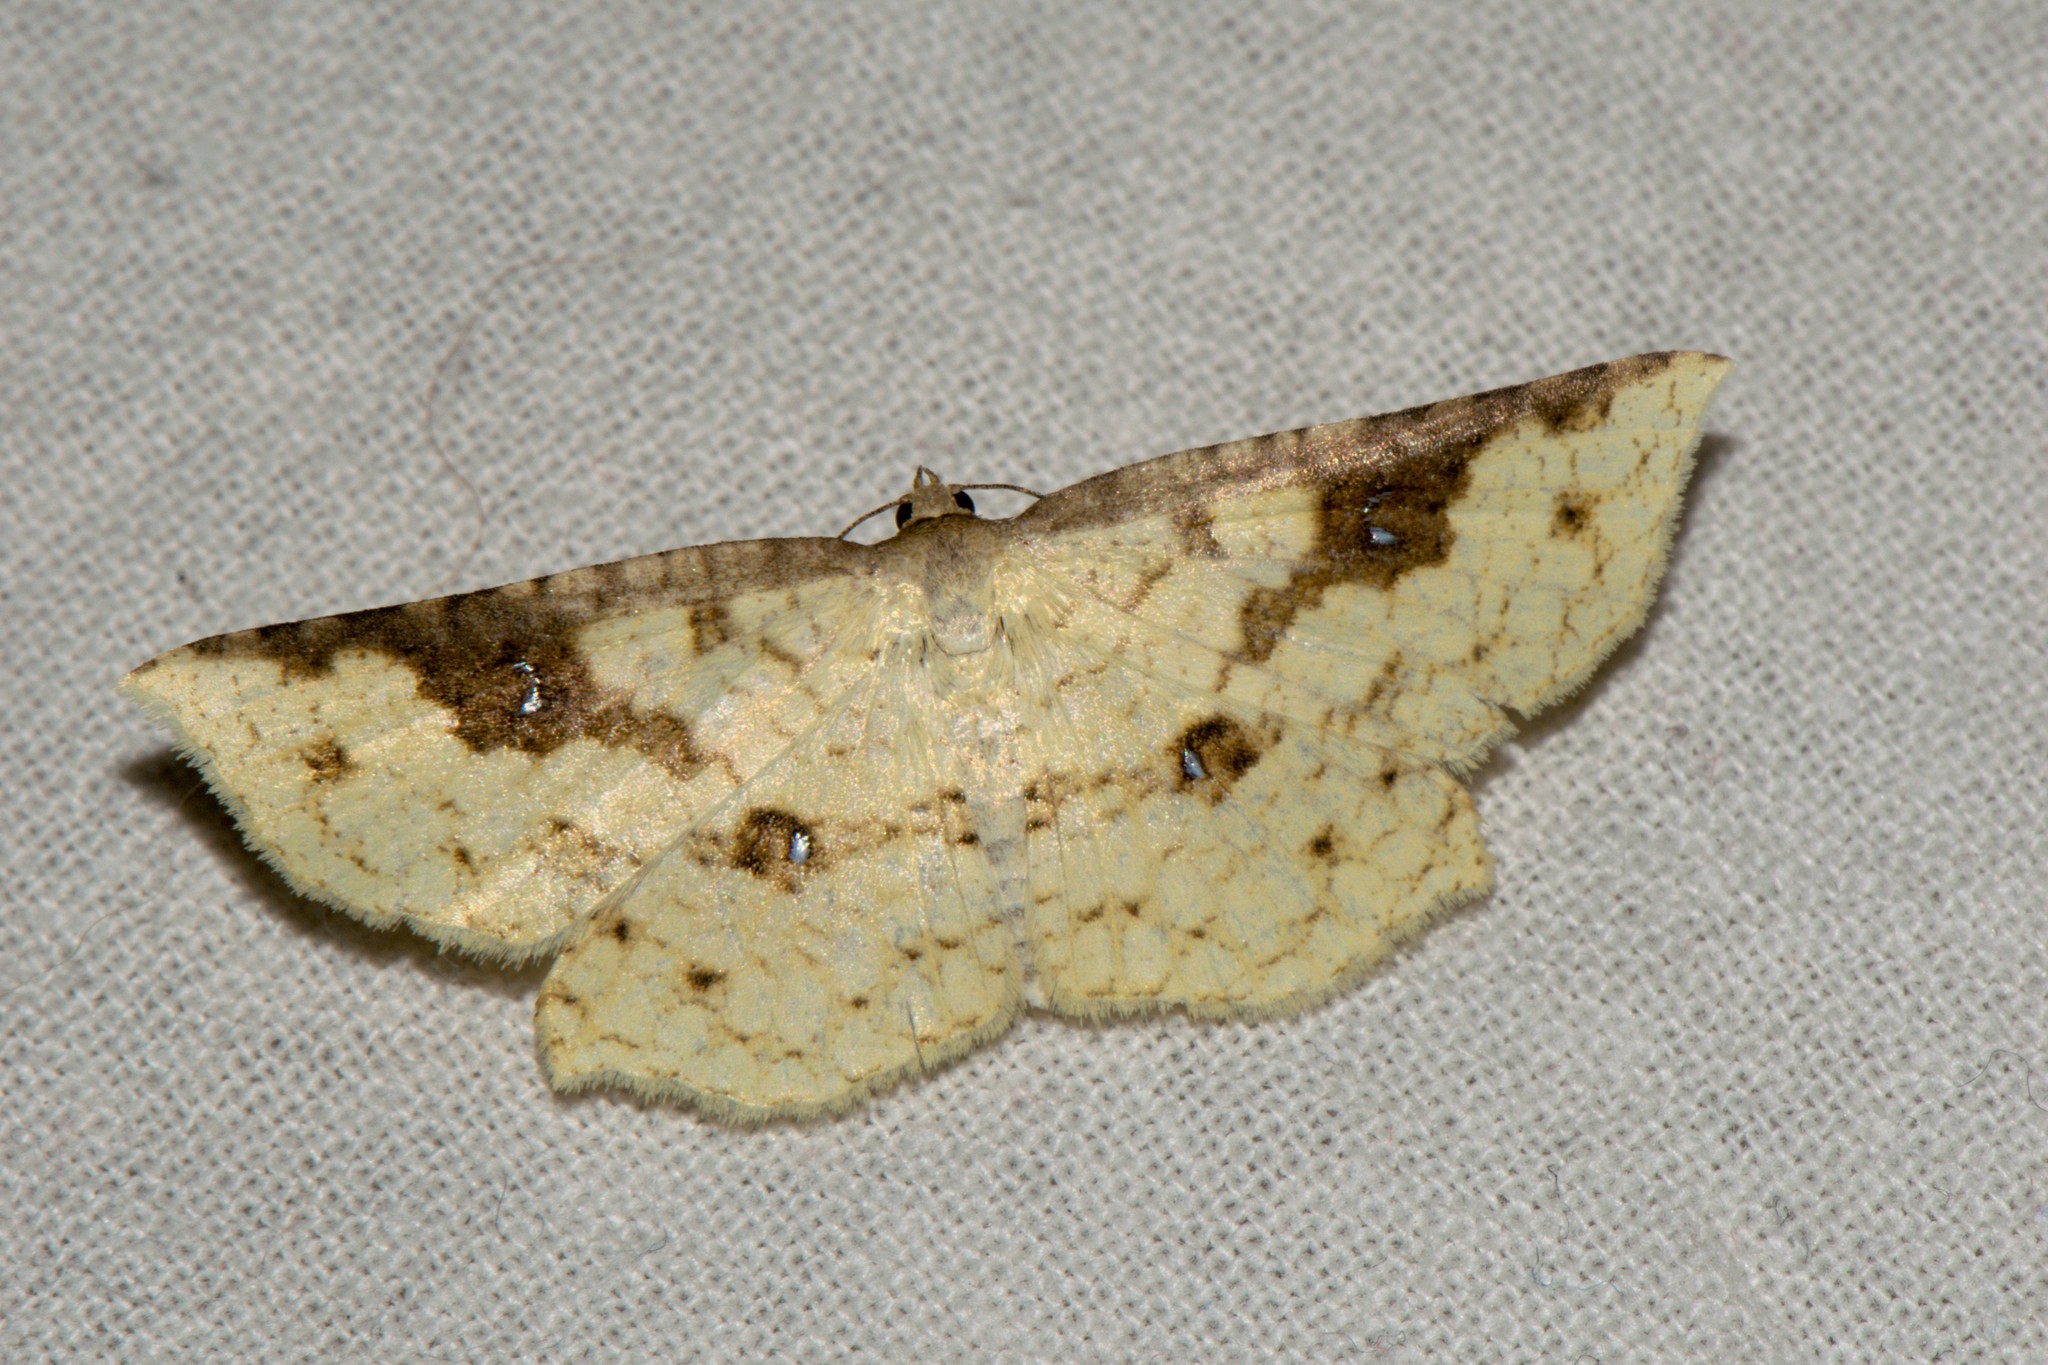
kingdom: Animalia
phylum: Arthropoda
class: Insecta
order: Lepidoptera
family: Thyrididae
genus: Camadena
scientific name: Camadena vespertilionis
